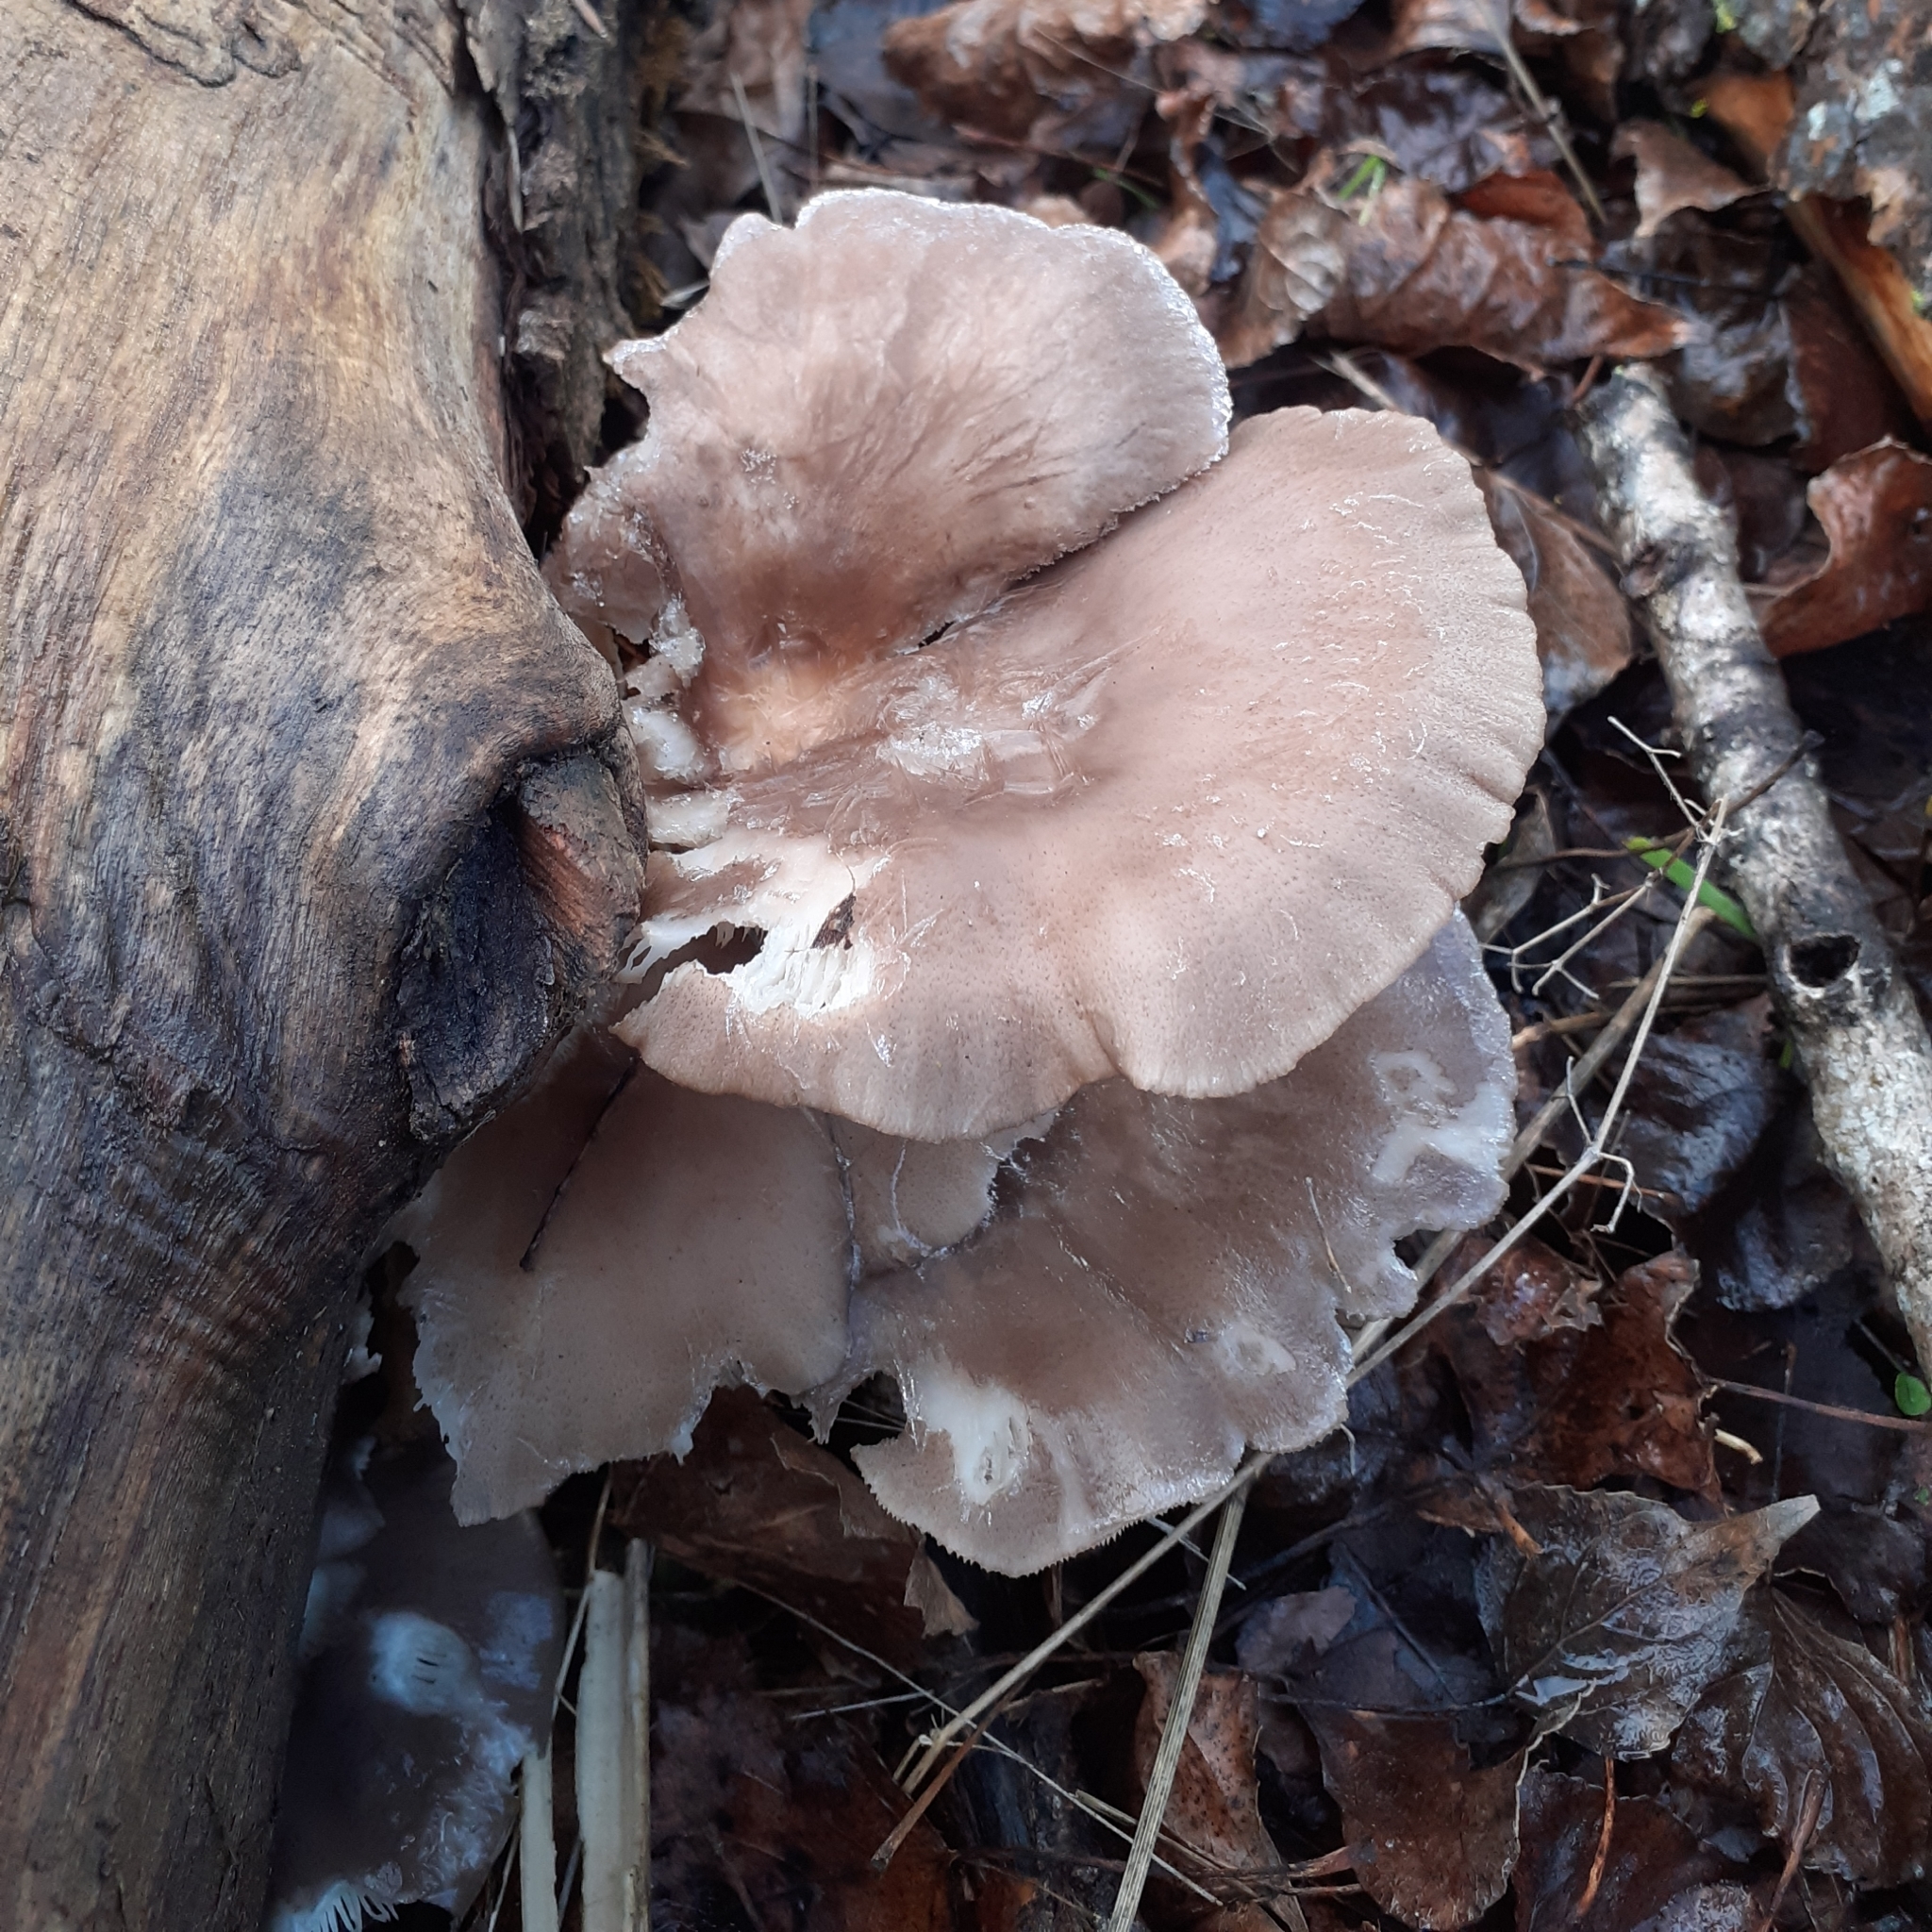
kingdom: Fungi
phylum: Basidiomycota
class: Agaricomycetes
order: Agaricales
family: Pleurotaceae
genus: Pleurotus
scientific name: Pleurotus ostreatus
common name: Oyster mushroom
